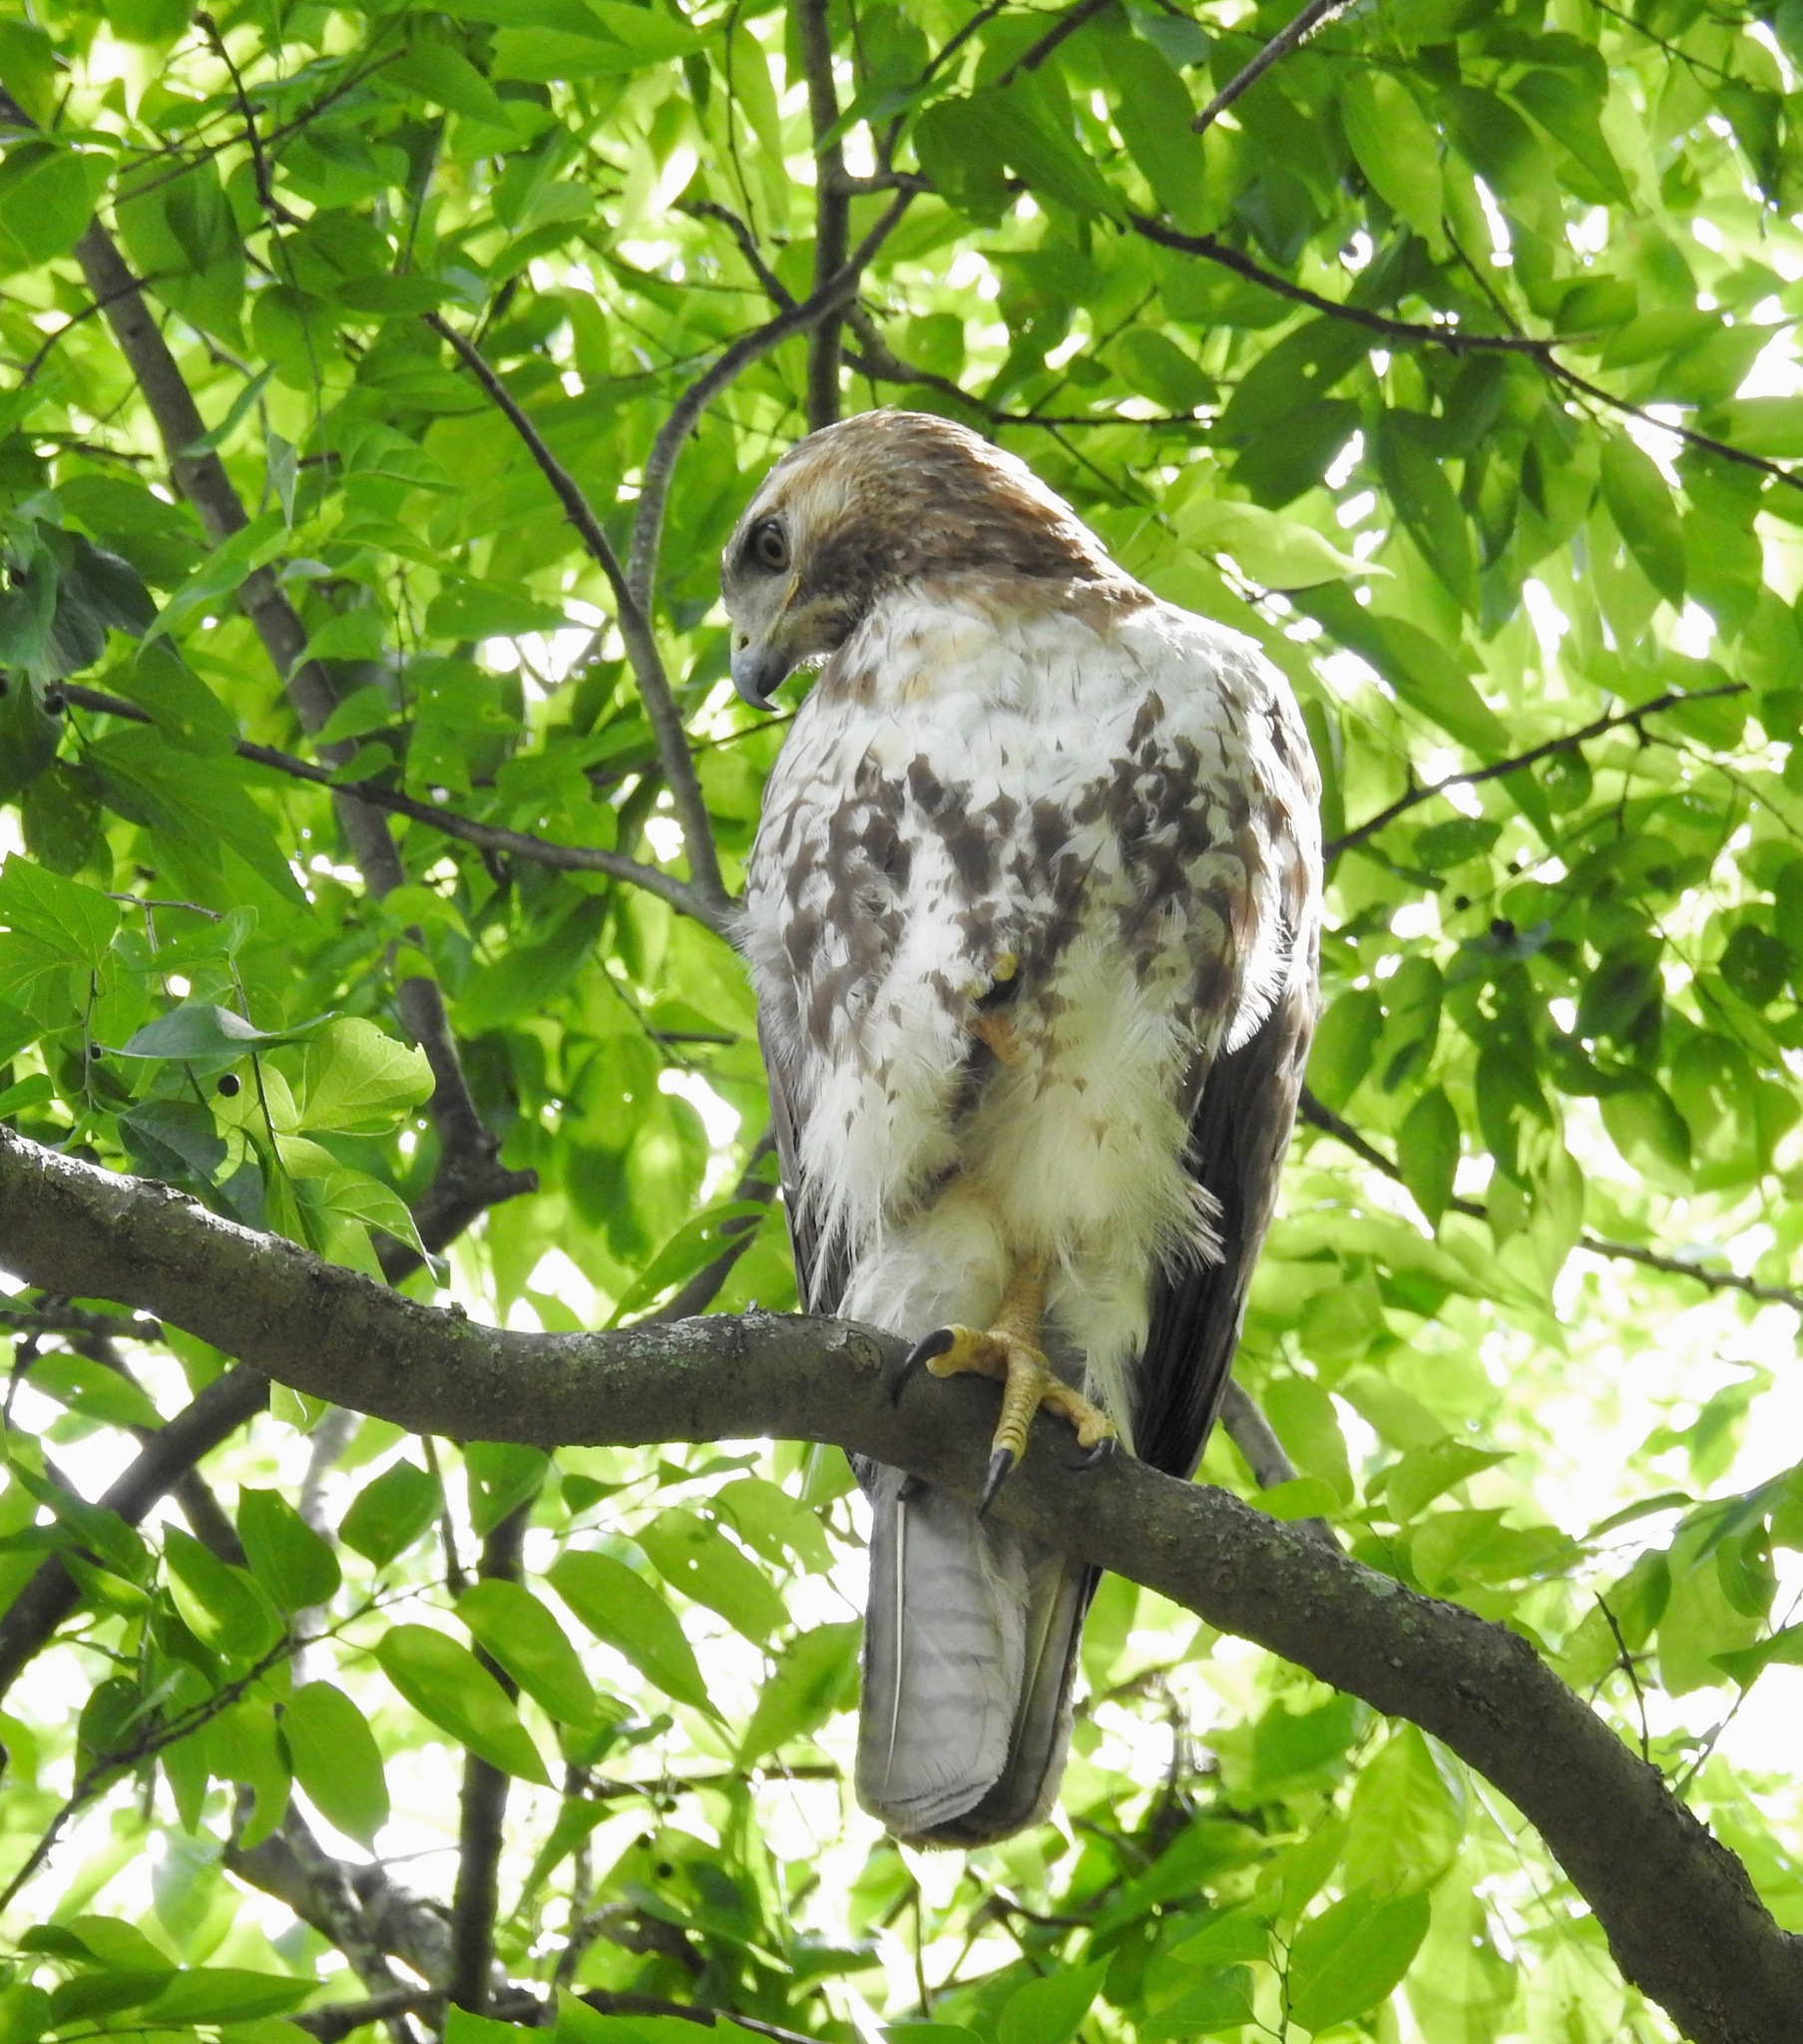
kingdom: Animalia
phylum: Chordata
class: Aves
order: Accipitriformes
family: Accipitridae
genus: Buteo
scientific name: Buteo jamaicensis
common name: Red-tailed hawk
